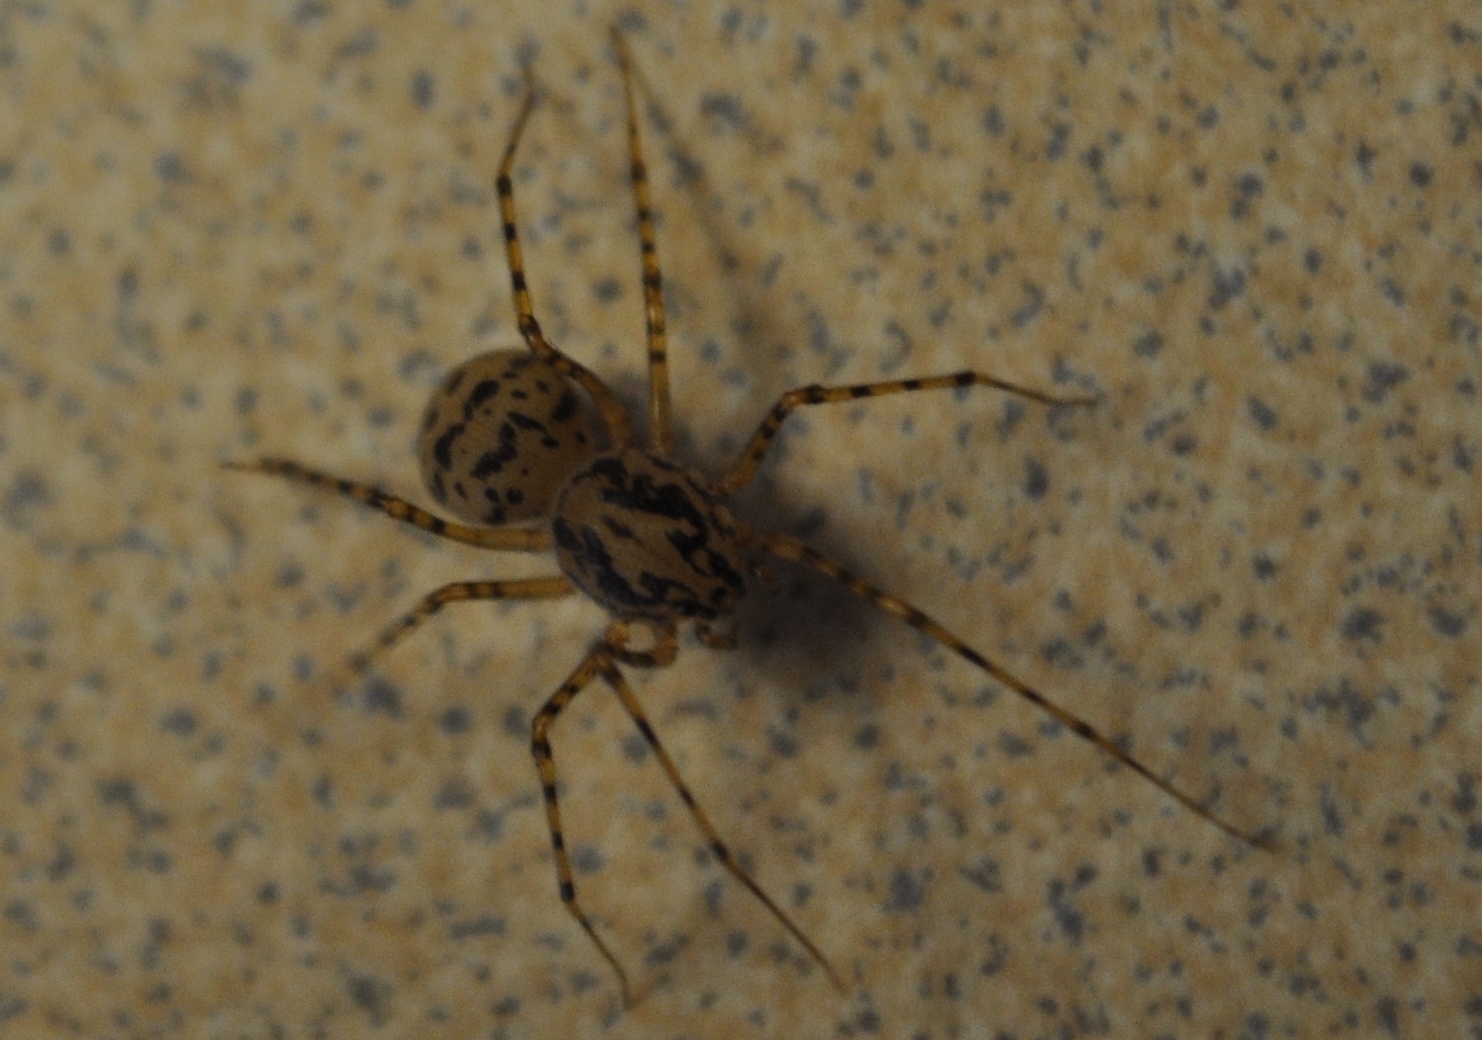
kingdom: Animalia
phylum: Arthropoda
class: Arachnida
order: Araneae
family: Scytodidae
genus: Scytodes
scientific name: Scytodes thoracica
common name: Spitting spider
